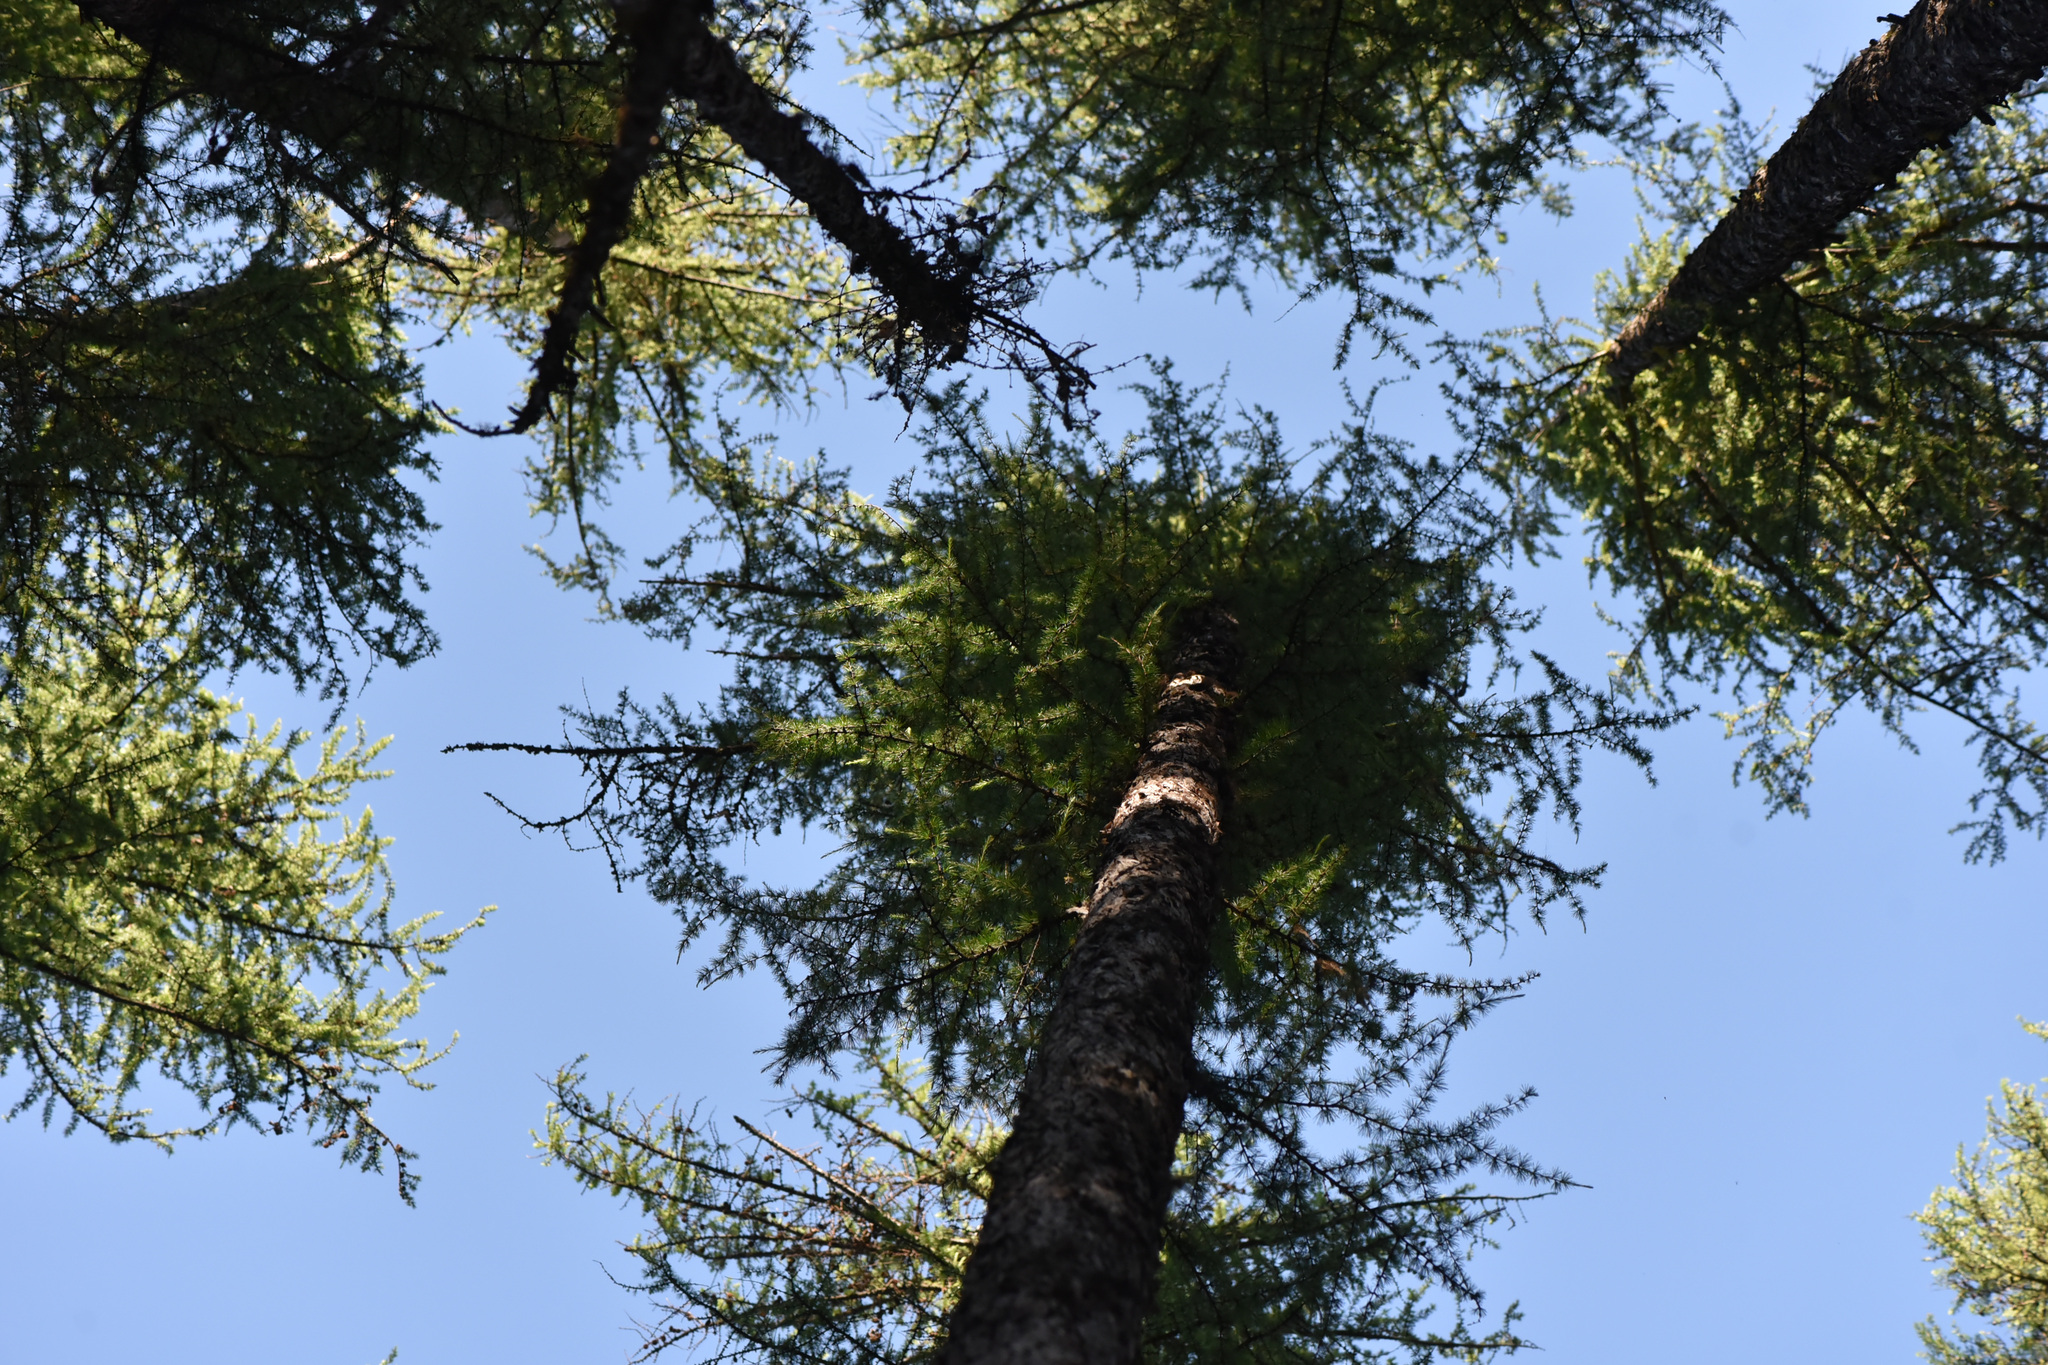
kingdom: Plantae
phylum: Tracheophyta
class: Pinopsida
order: Pinales
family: Pinaceae
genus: Larix
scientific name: Larix occidentalis
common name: Western larch
